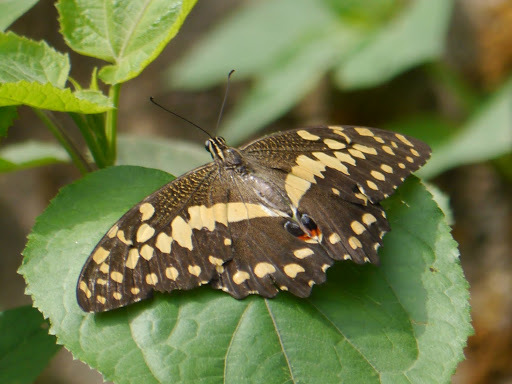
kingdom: Animalia
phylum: Arthropoda
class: Insecta
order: Lepidoptera
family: Papilionidae
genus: Papilio
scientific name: Papilio demodocus
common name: Christmas butterfly
